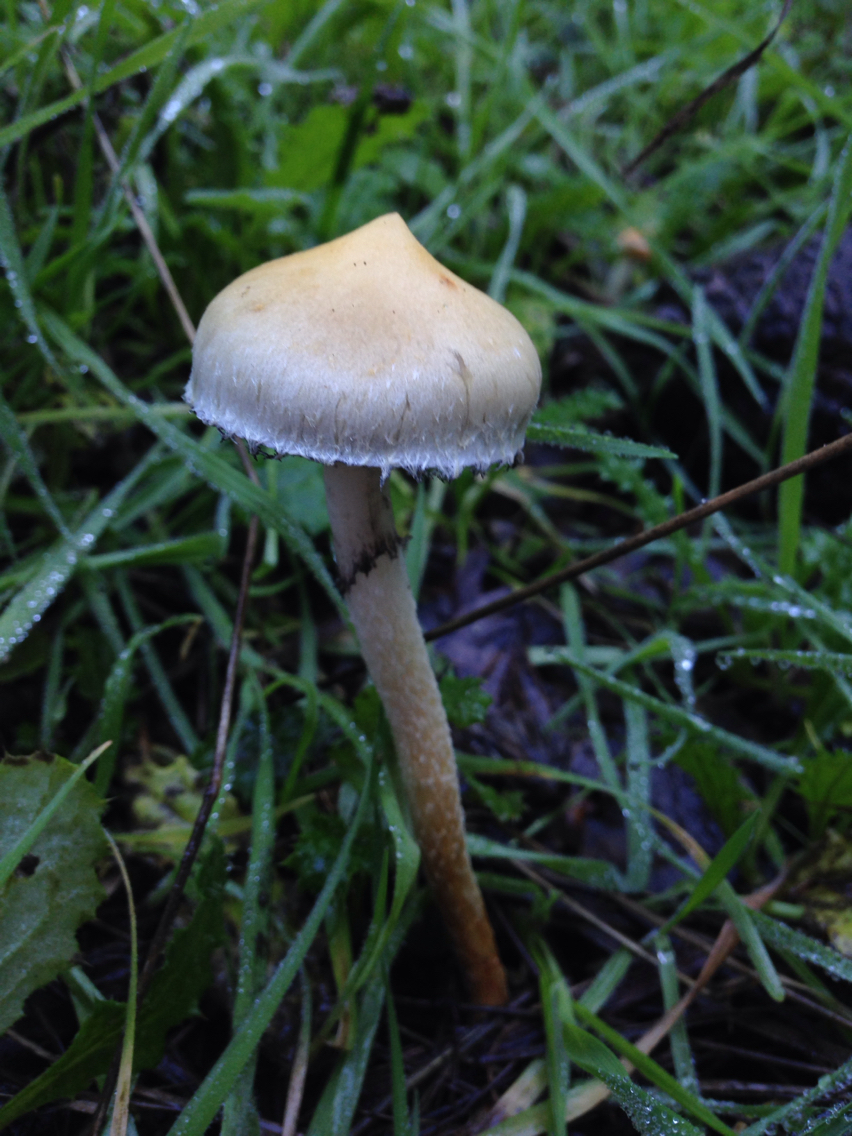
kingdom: Fungi
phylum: Basidiomycota
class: Agaricomycetes
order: Agaricales
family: Strophariaceae
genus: Leratiomyces
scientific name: Leratiomyces percevalii
